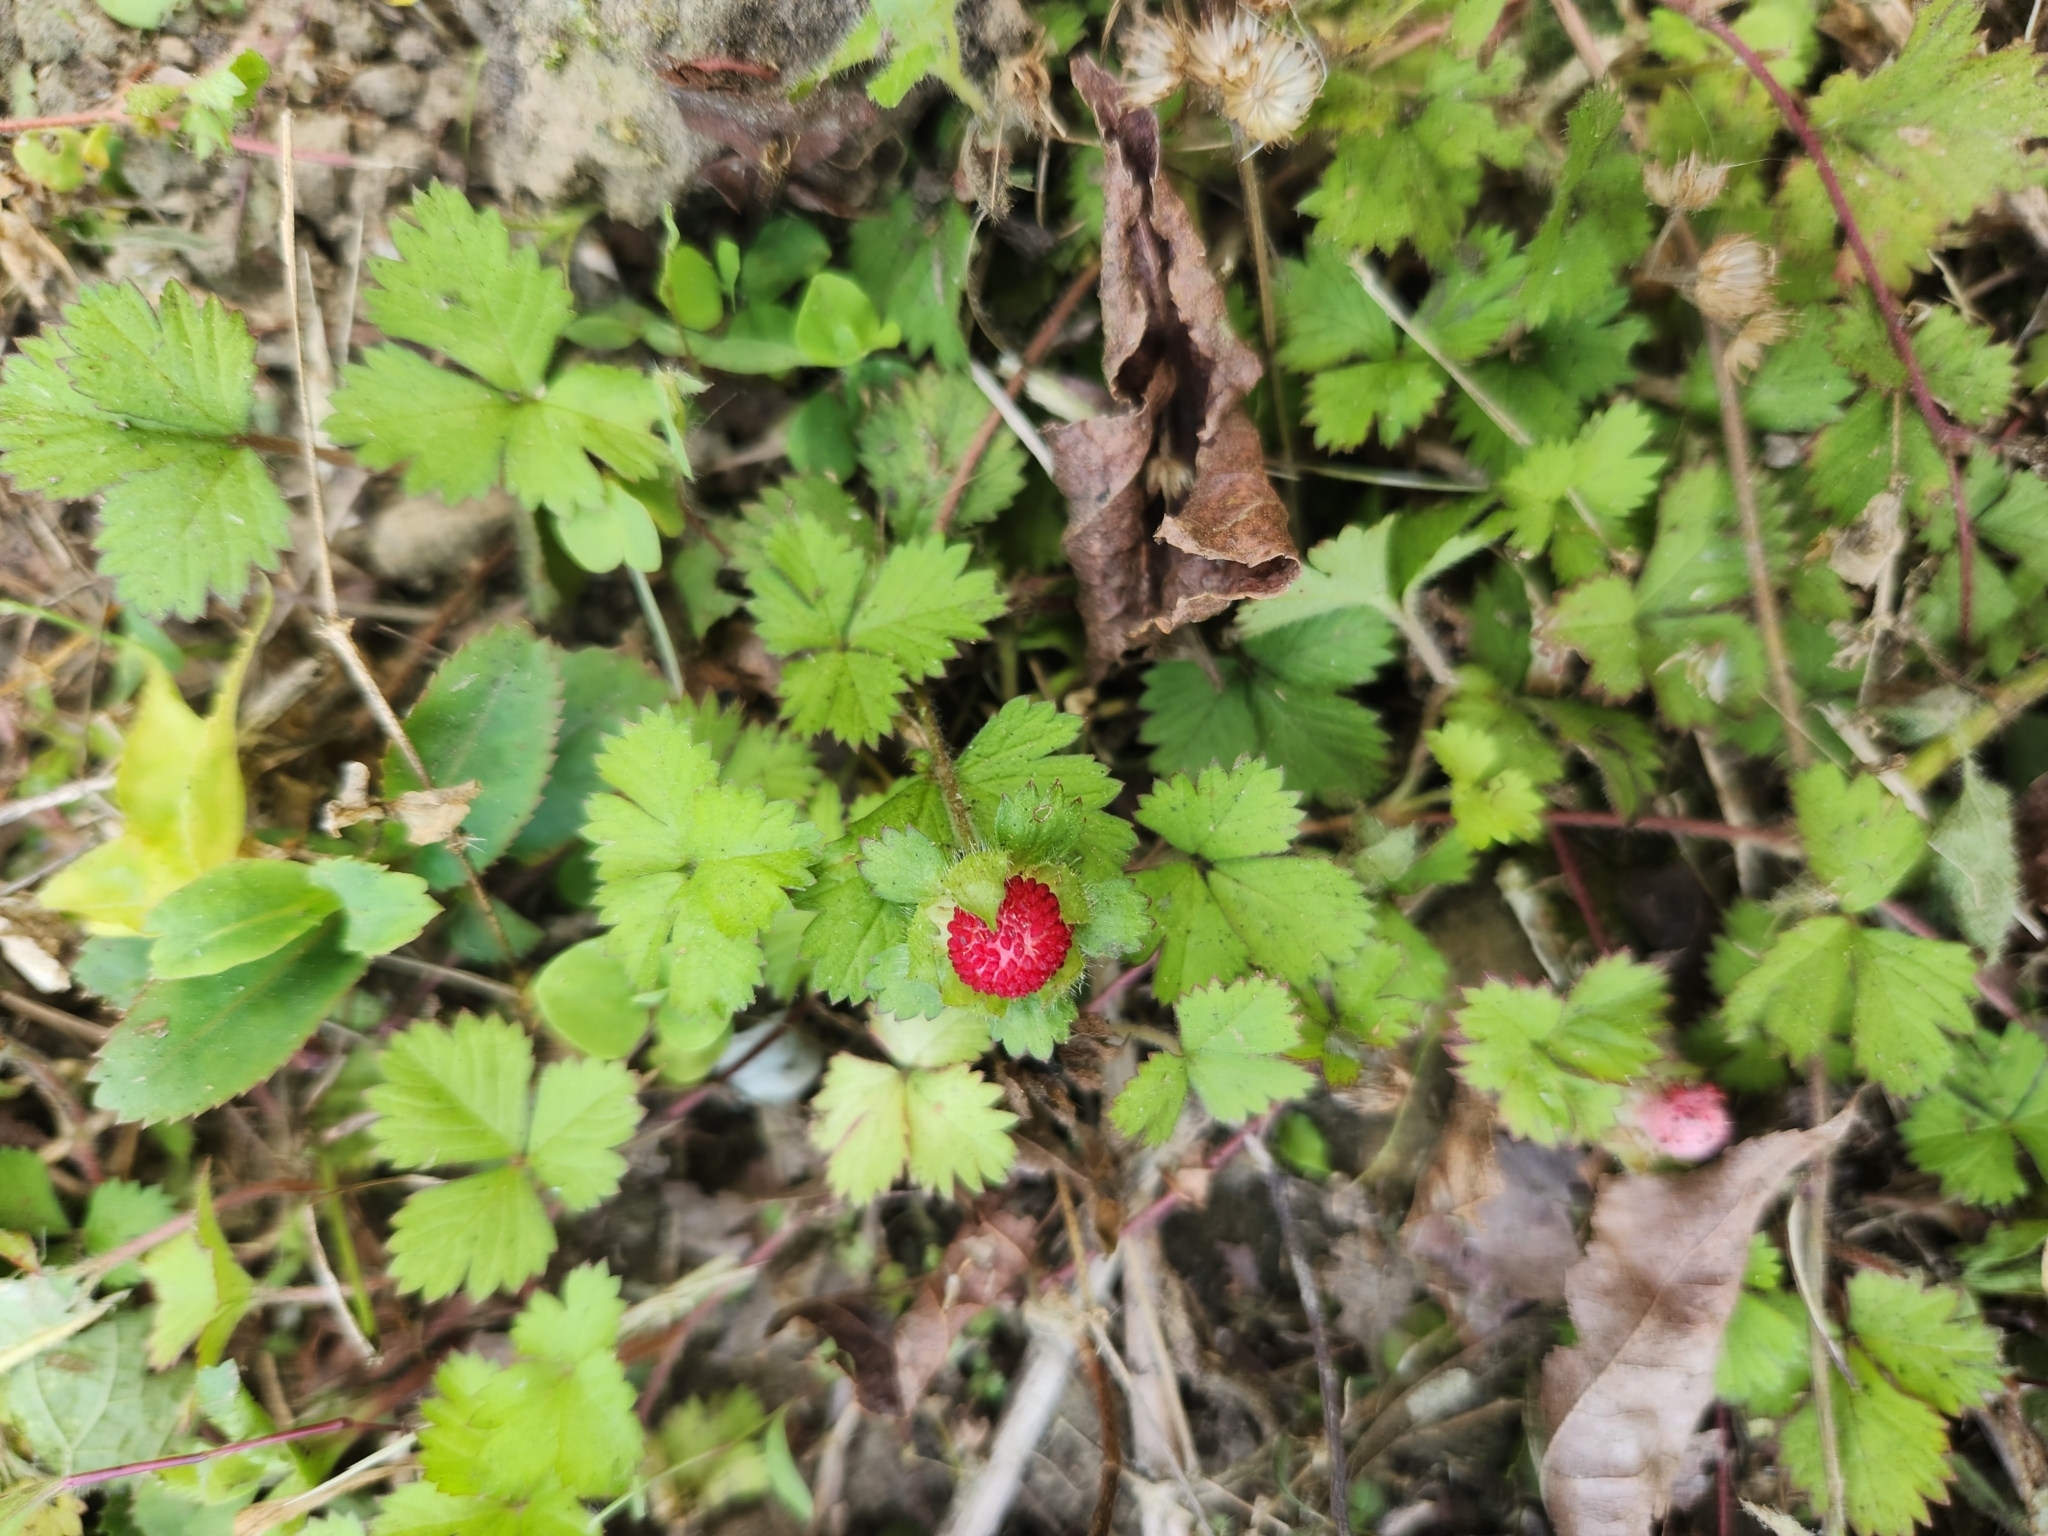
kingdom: Plantae
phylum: Tracheophyta
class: Magnoliopsida
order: Rosales
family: Rosaceae
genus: Potentilla
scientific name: Potentilla wallichiana
